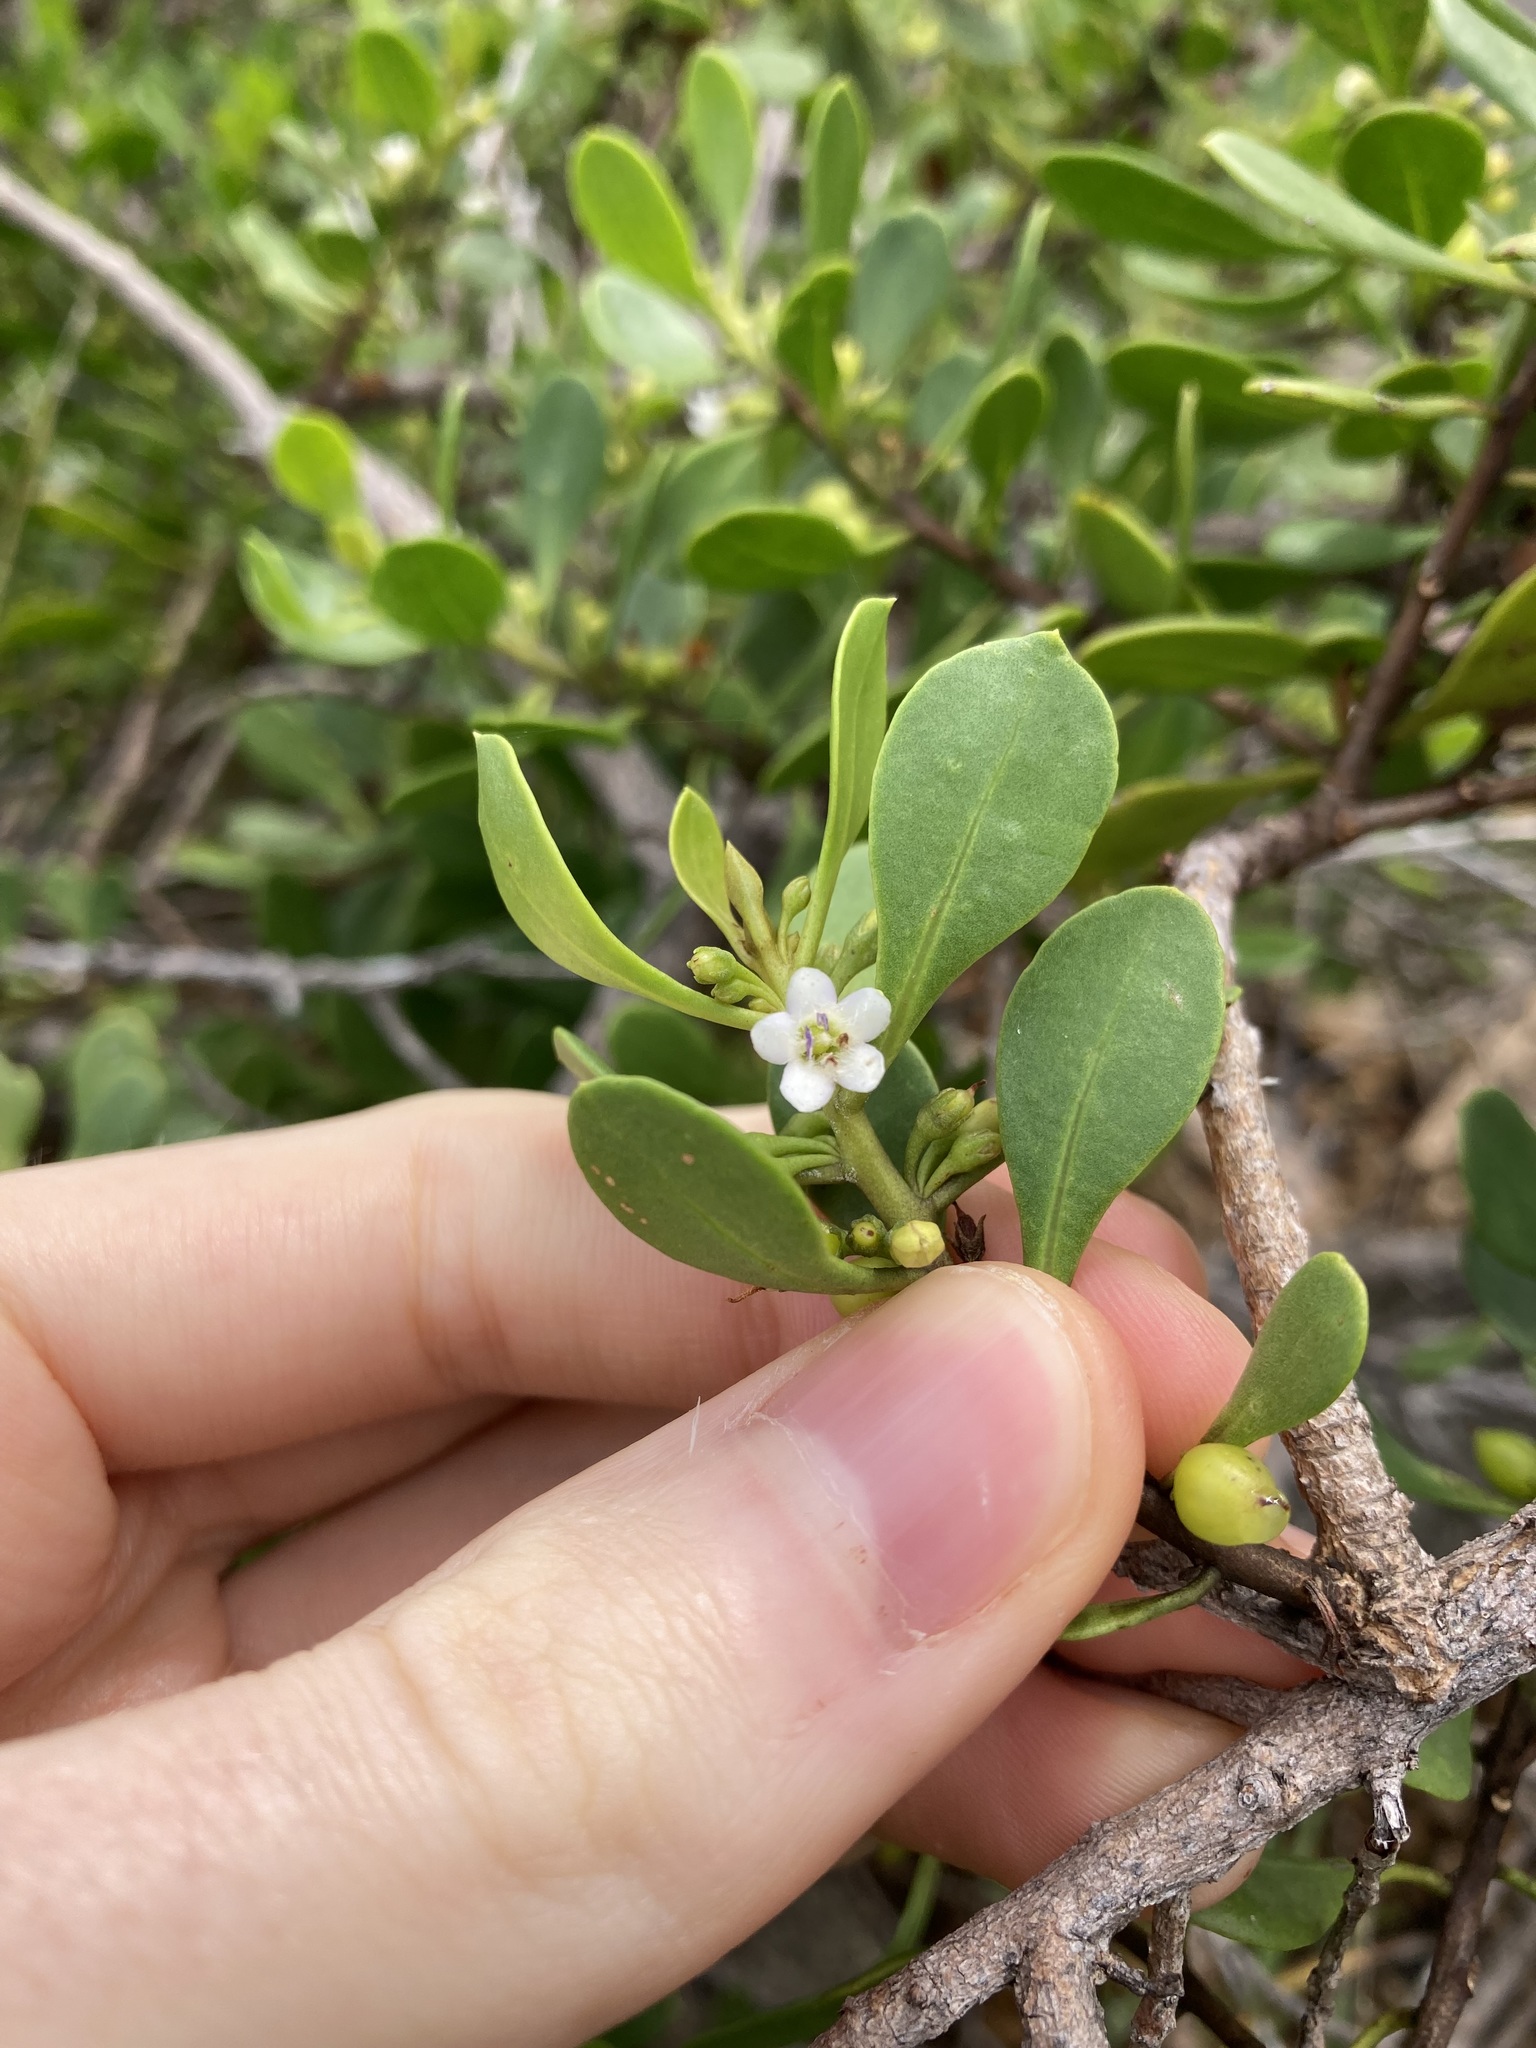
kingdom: Plantae
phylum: Tracheophyta
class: Magnoliopsida
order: Lamiales
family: Scrophulariaceae
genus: Myoporum
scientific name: Myoporum boninense
